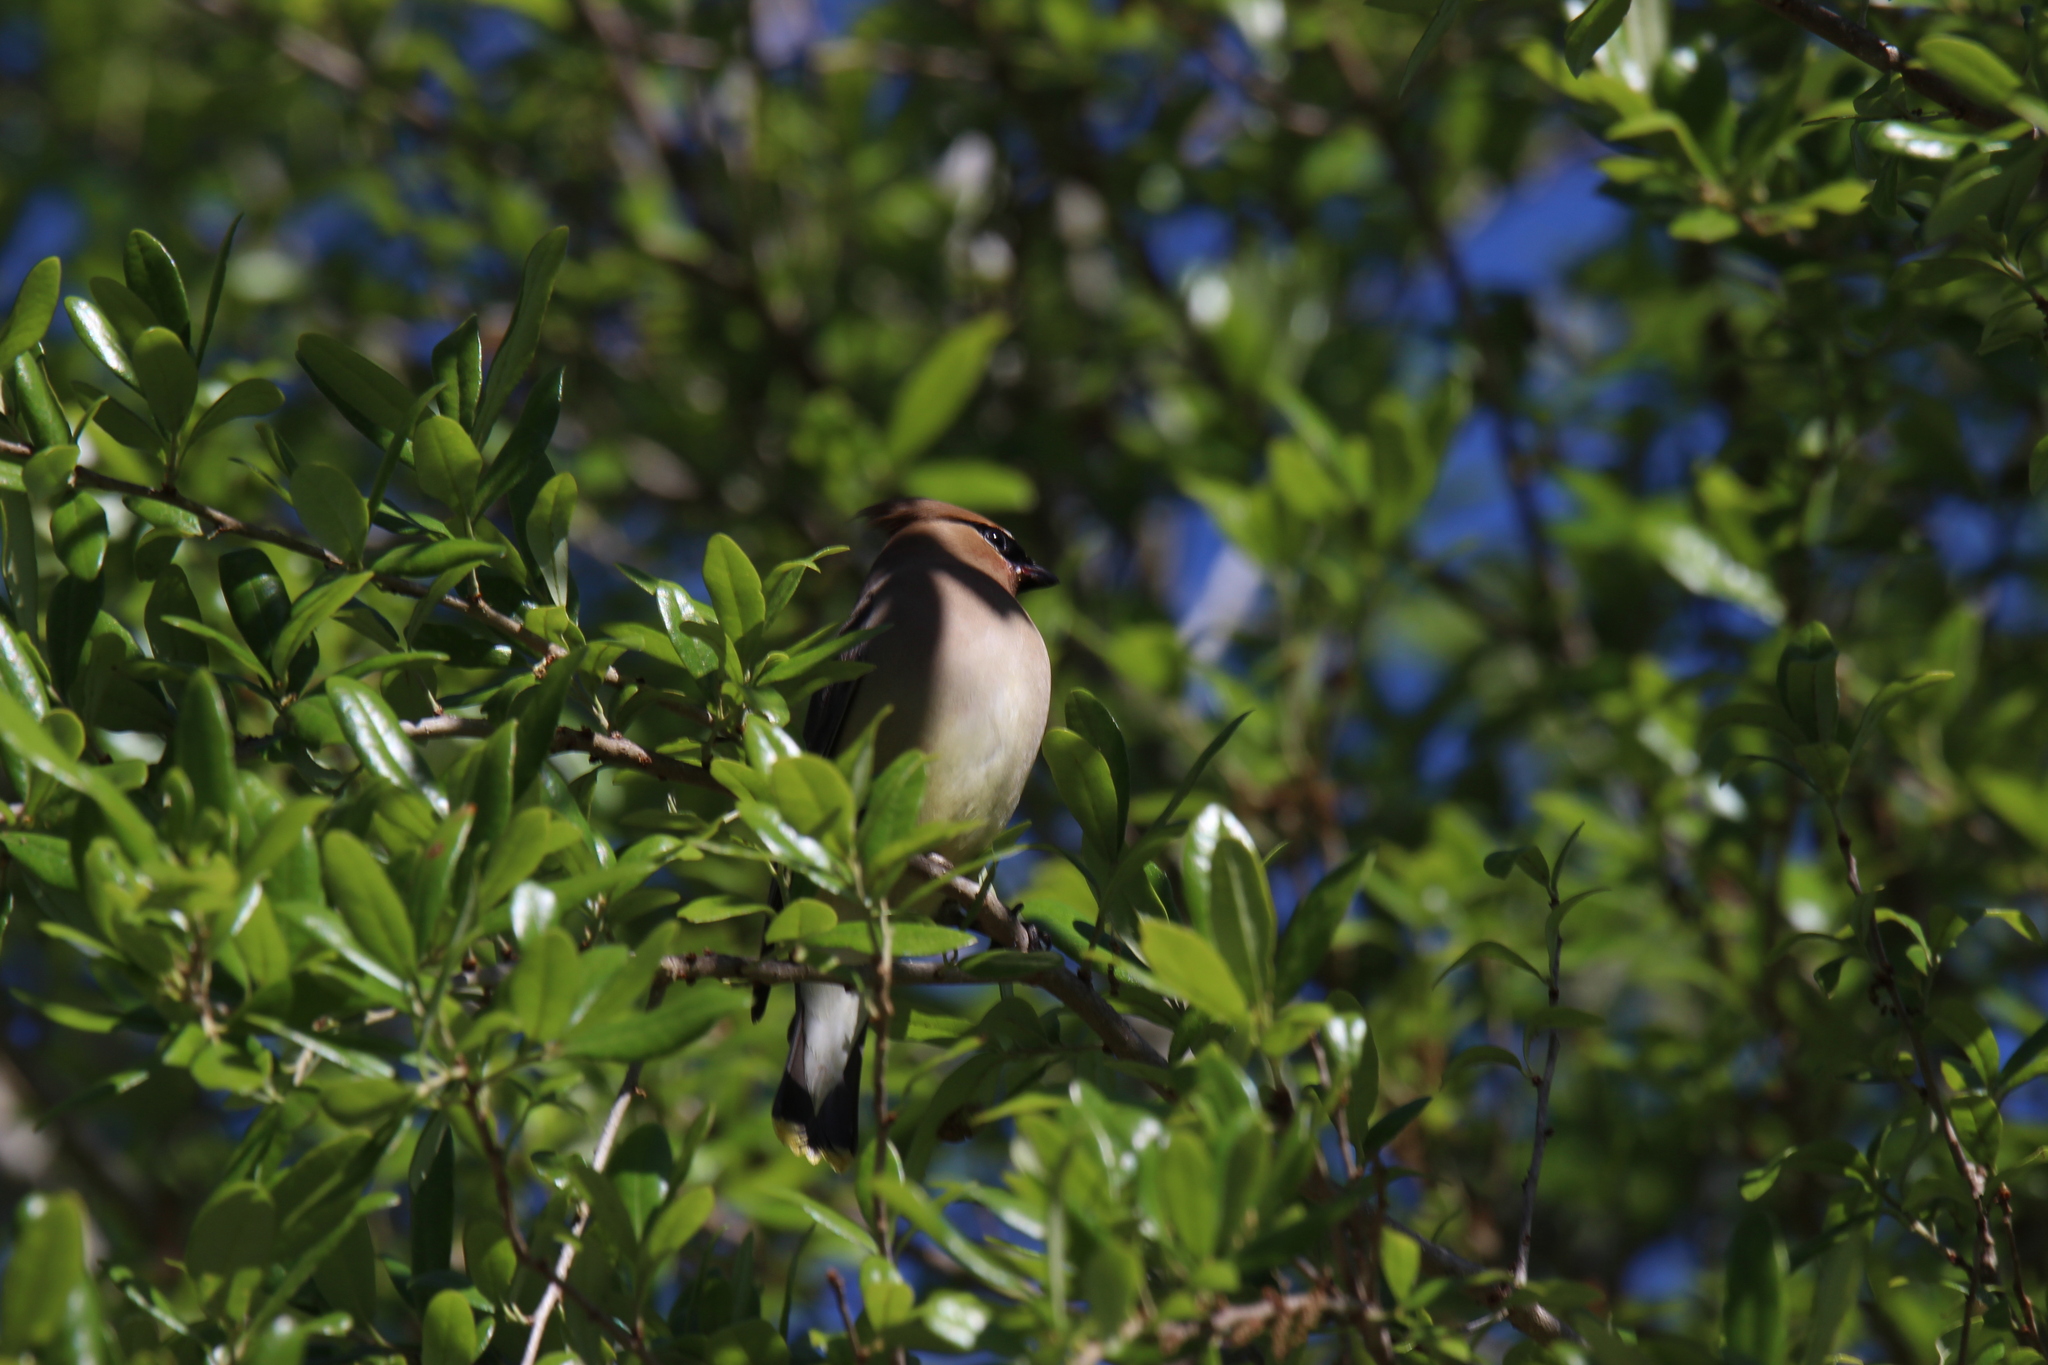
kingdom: Animalia
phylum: Chordata
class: Aves
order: Passeriformes
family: Bombycillidae
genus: Bombycilla
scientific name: Bombycilla cedrorum
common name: Cedar waxwing
